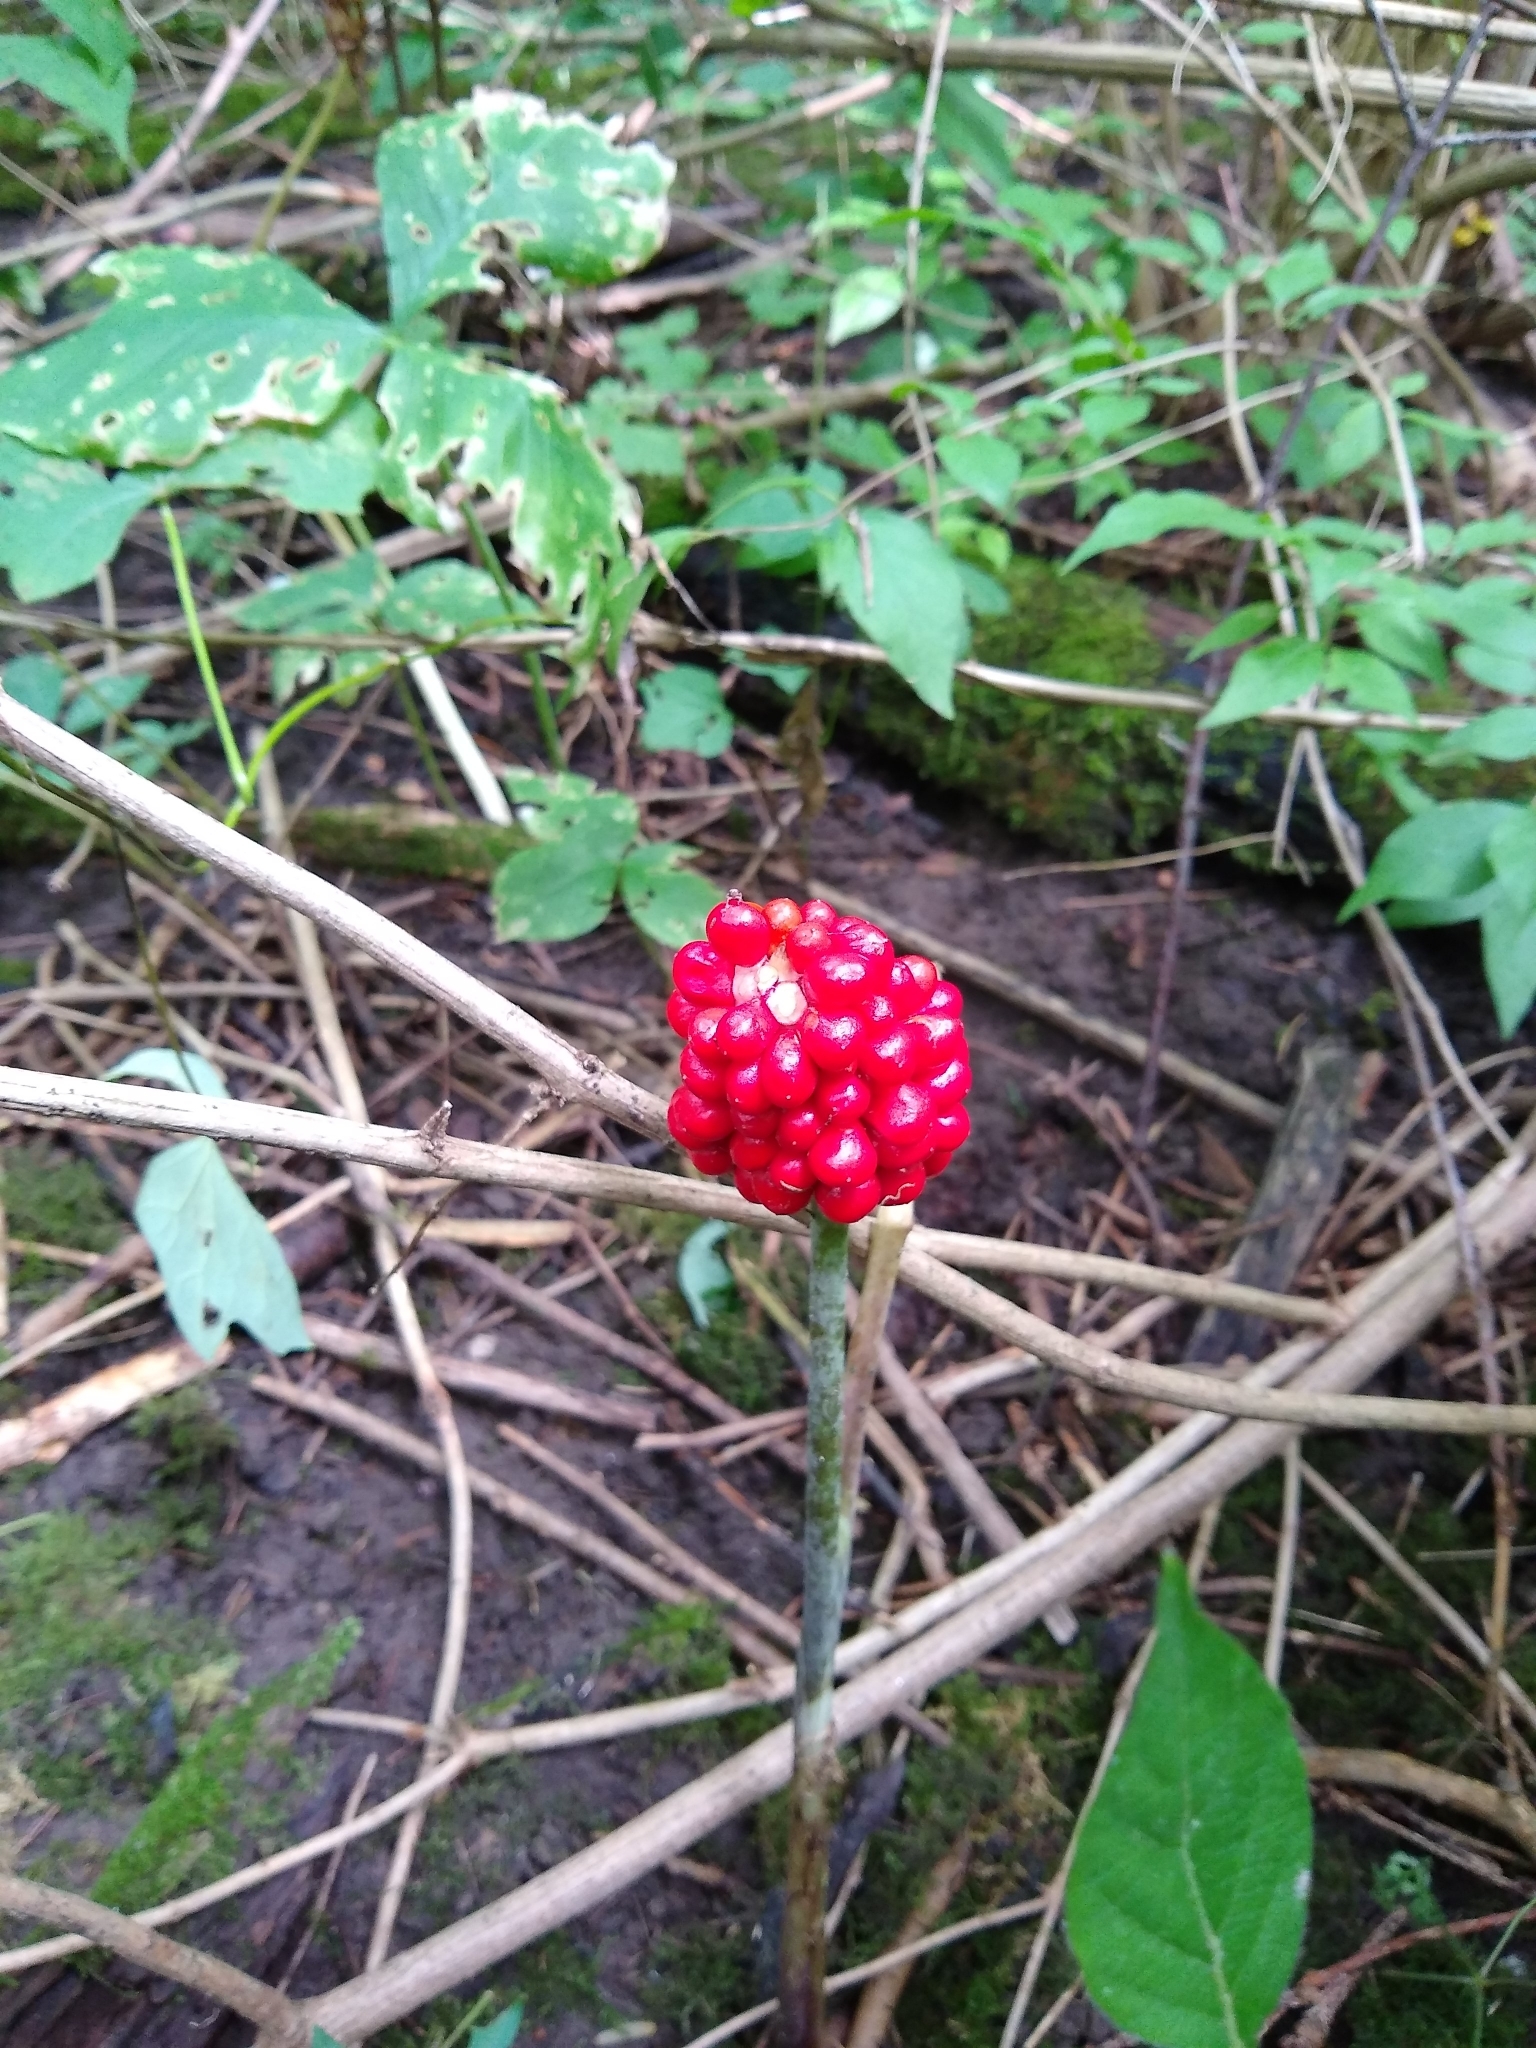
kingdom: Plantae
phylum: Tracheophyta
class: Liliopsida
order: Alismatales
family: Araceae
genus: Arisaema
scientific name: Arisaema triphyllum
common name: Jack-in-the-pulpit
